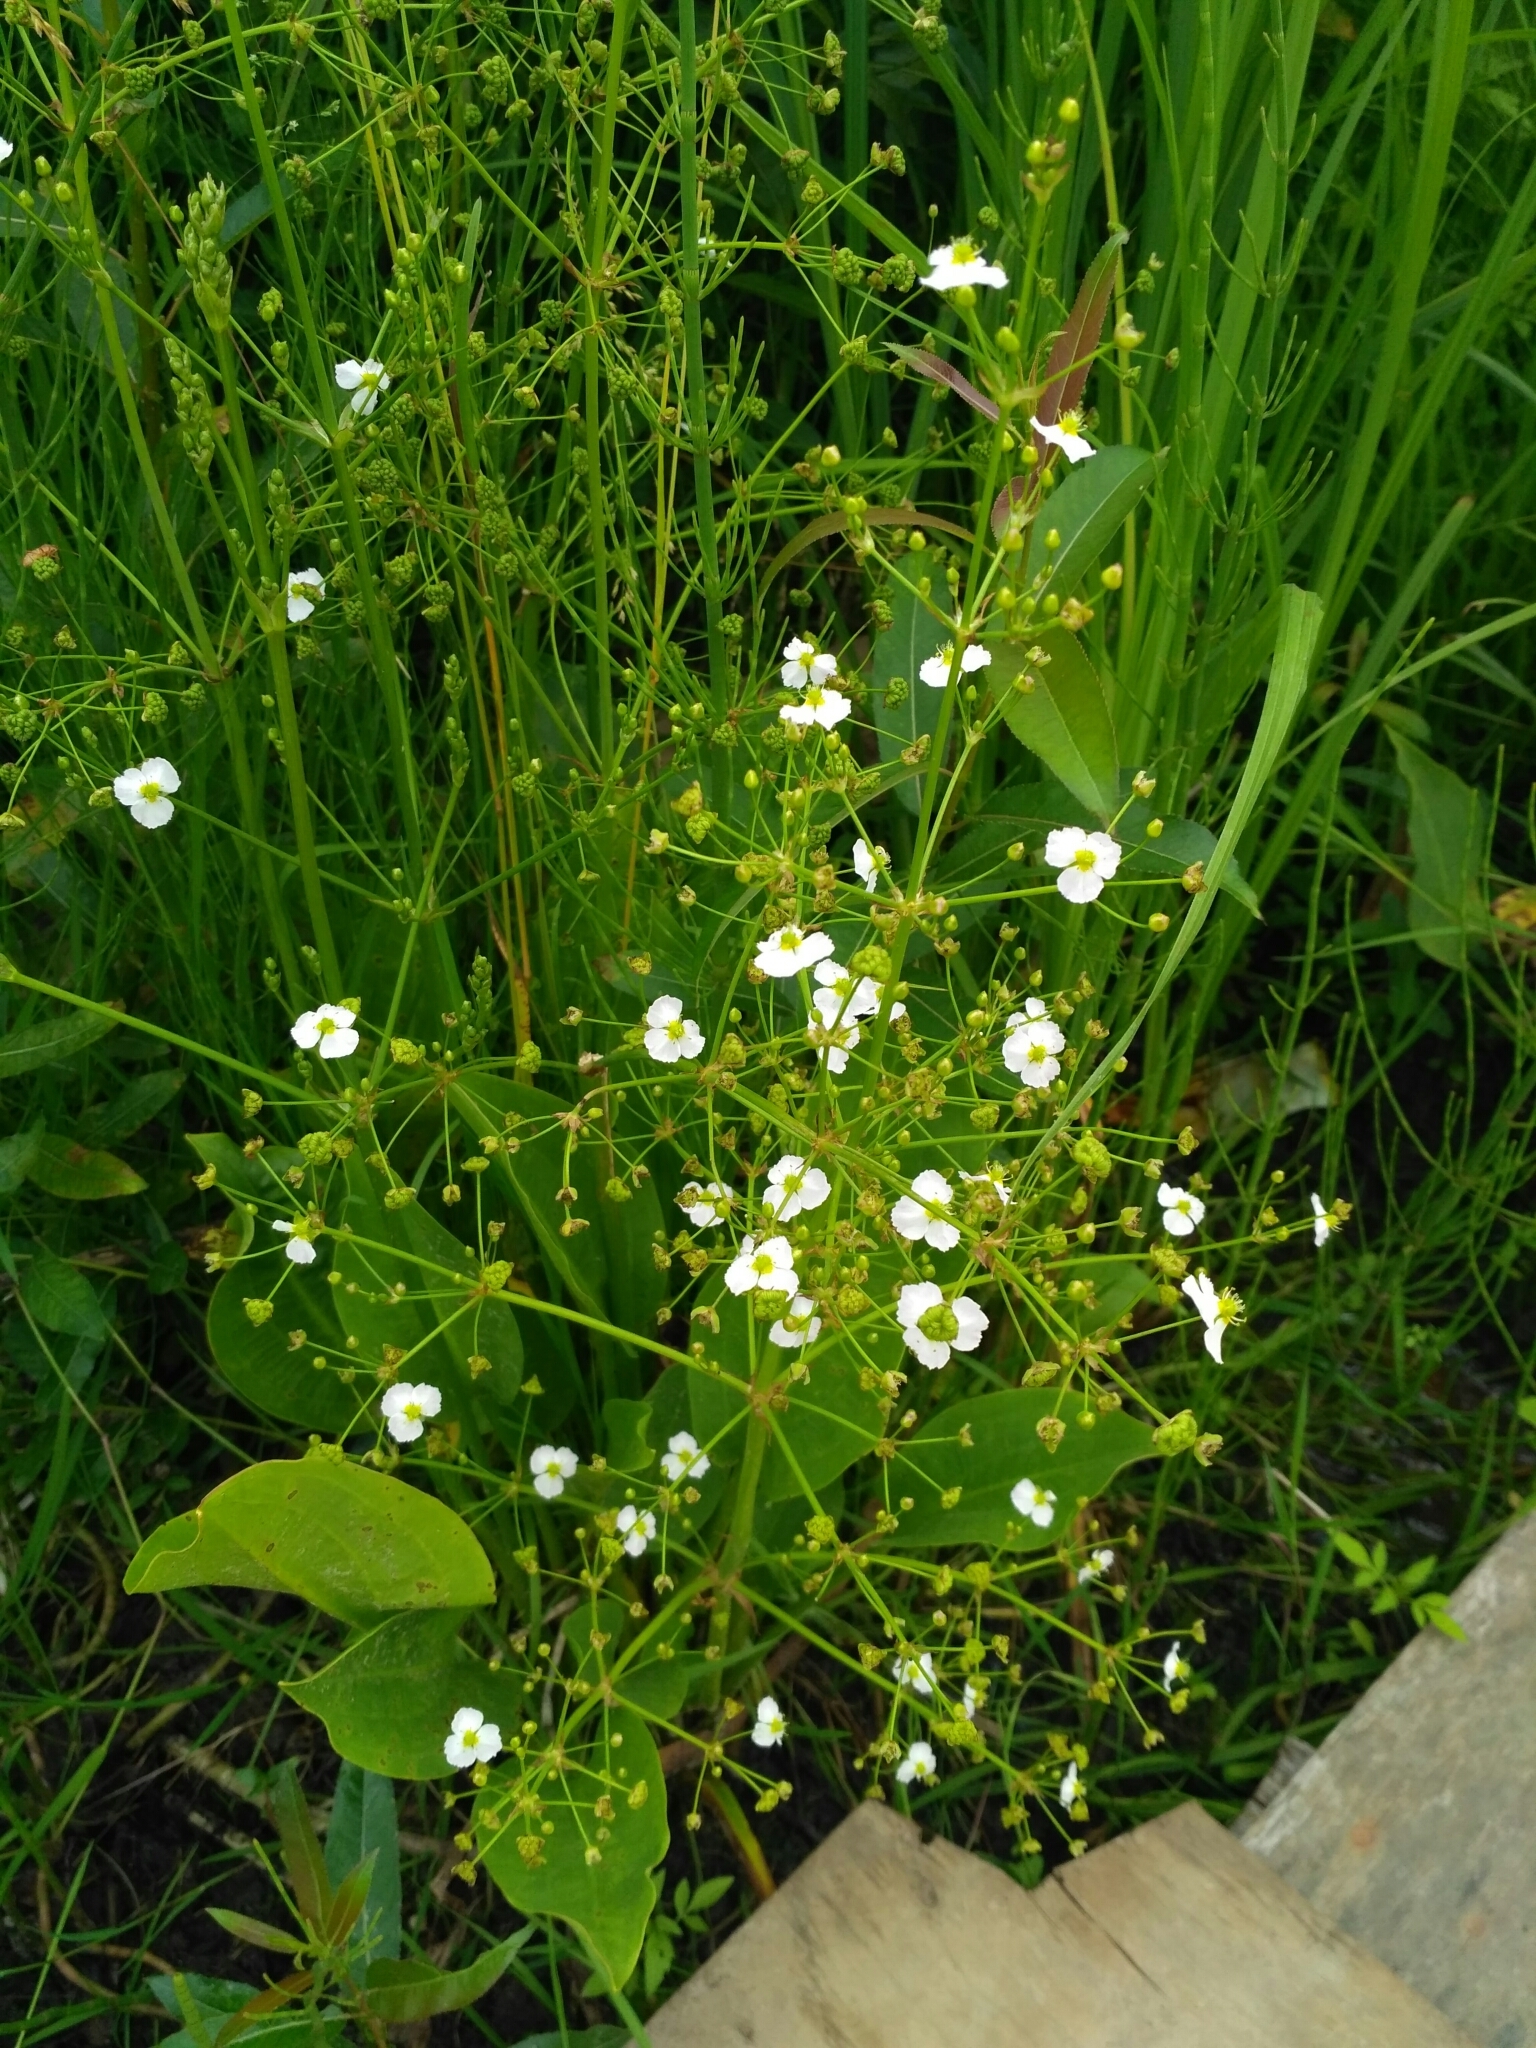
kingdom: Plantae
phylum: Tracheophyta
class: Liliopsida
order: Alismatales
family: Alismataceae
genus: Alisma
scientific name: Alisma plantago-aquatica
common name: Water-plantain
